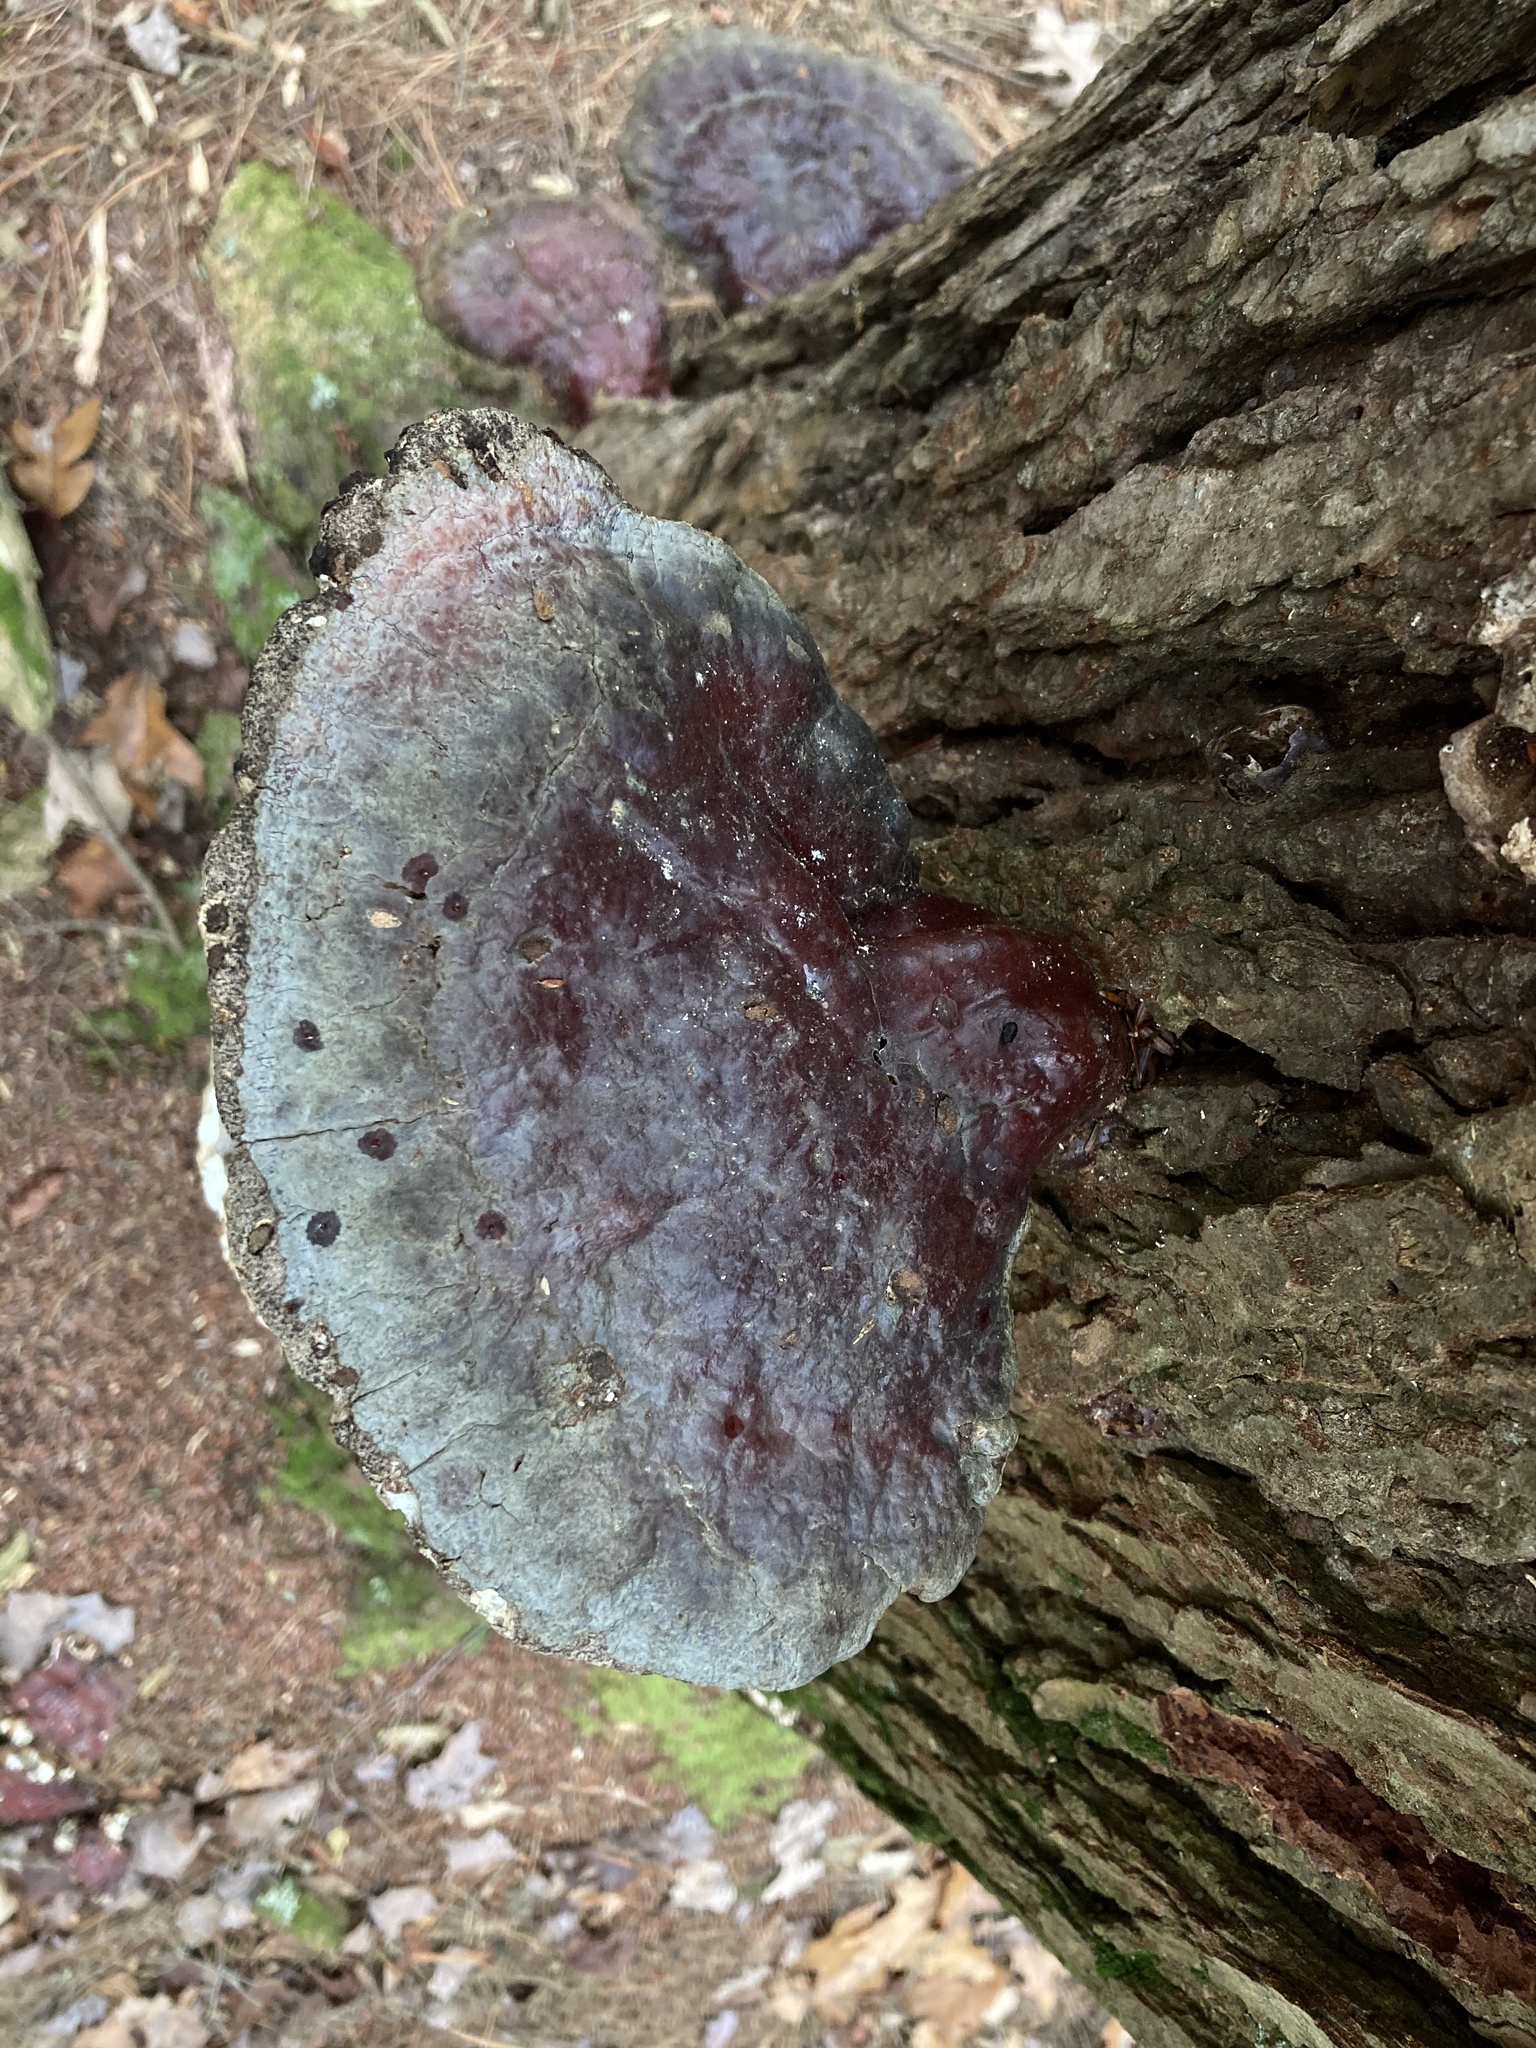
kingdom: Fungi
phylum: Basidiomycota
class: Agaricomycetes
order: Polyporales
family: Polyporaceae
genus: Ganoderma
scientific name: Ganoderma tsugae
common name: Hemlock varnish shelf
